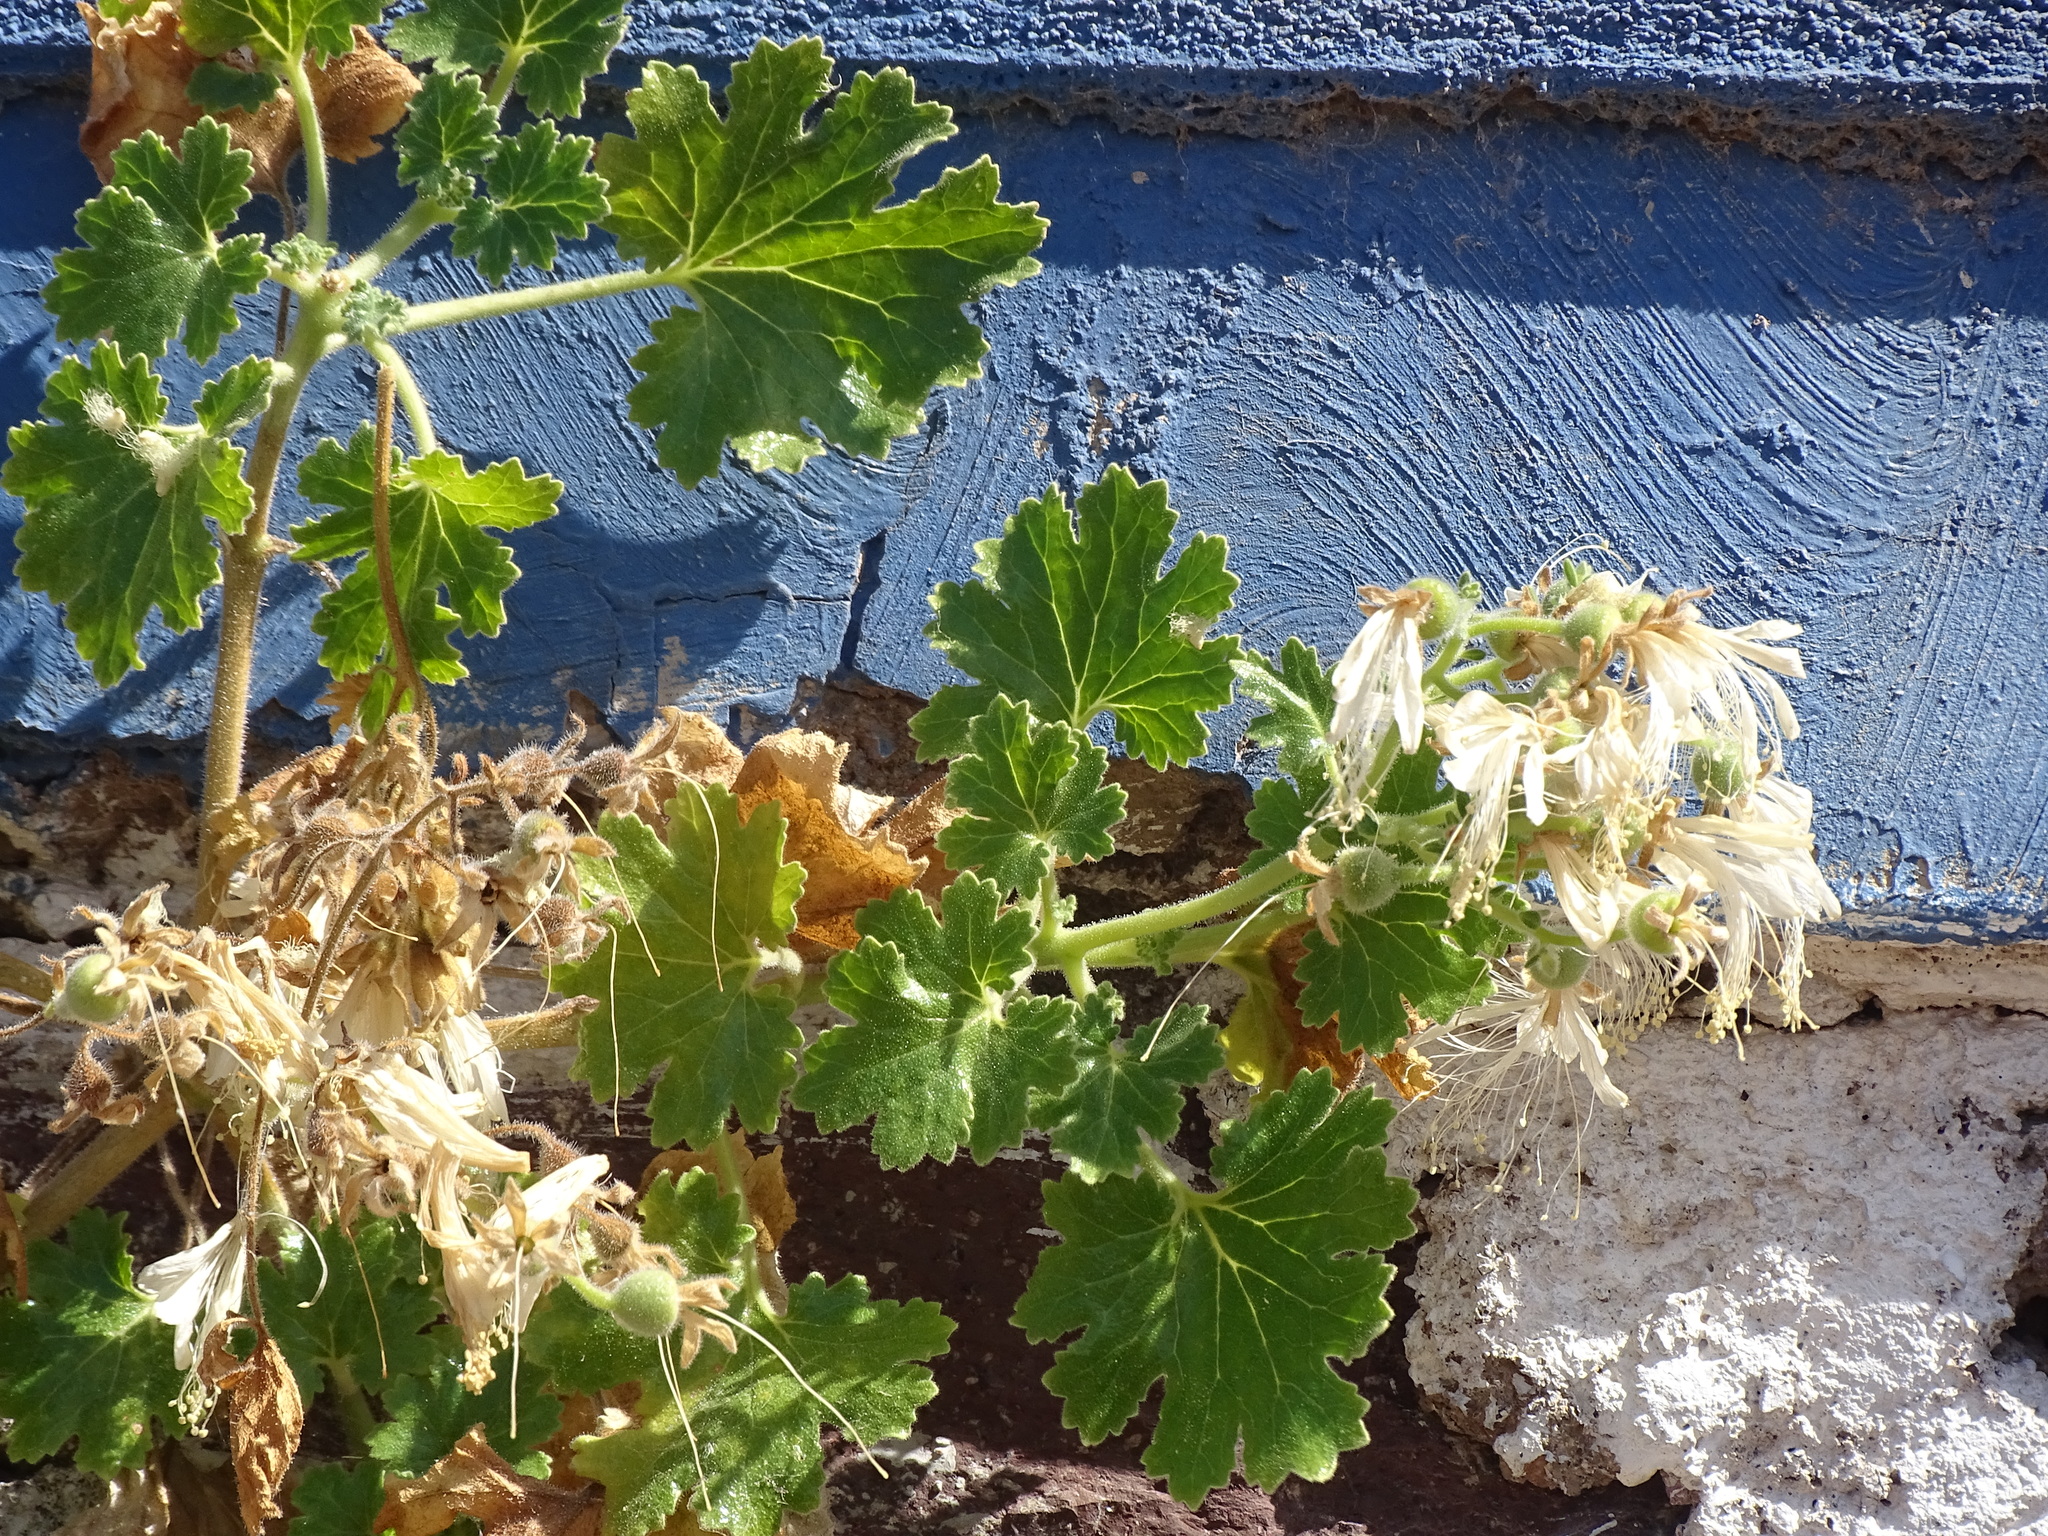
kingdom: Plantae
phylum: Tracheophyta
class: Magnoliopsida
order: Cornales
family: Loasaceae
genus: Eucnide
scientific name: Eucnide cordata
